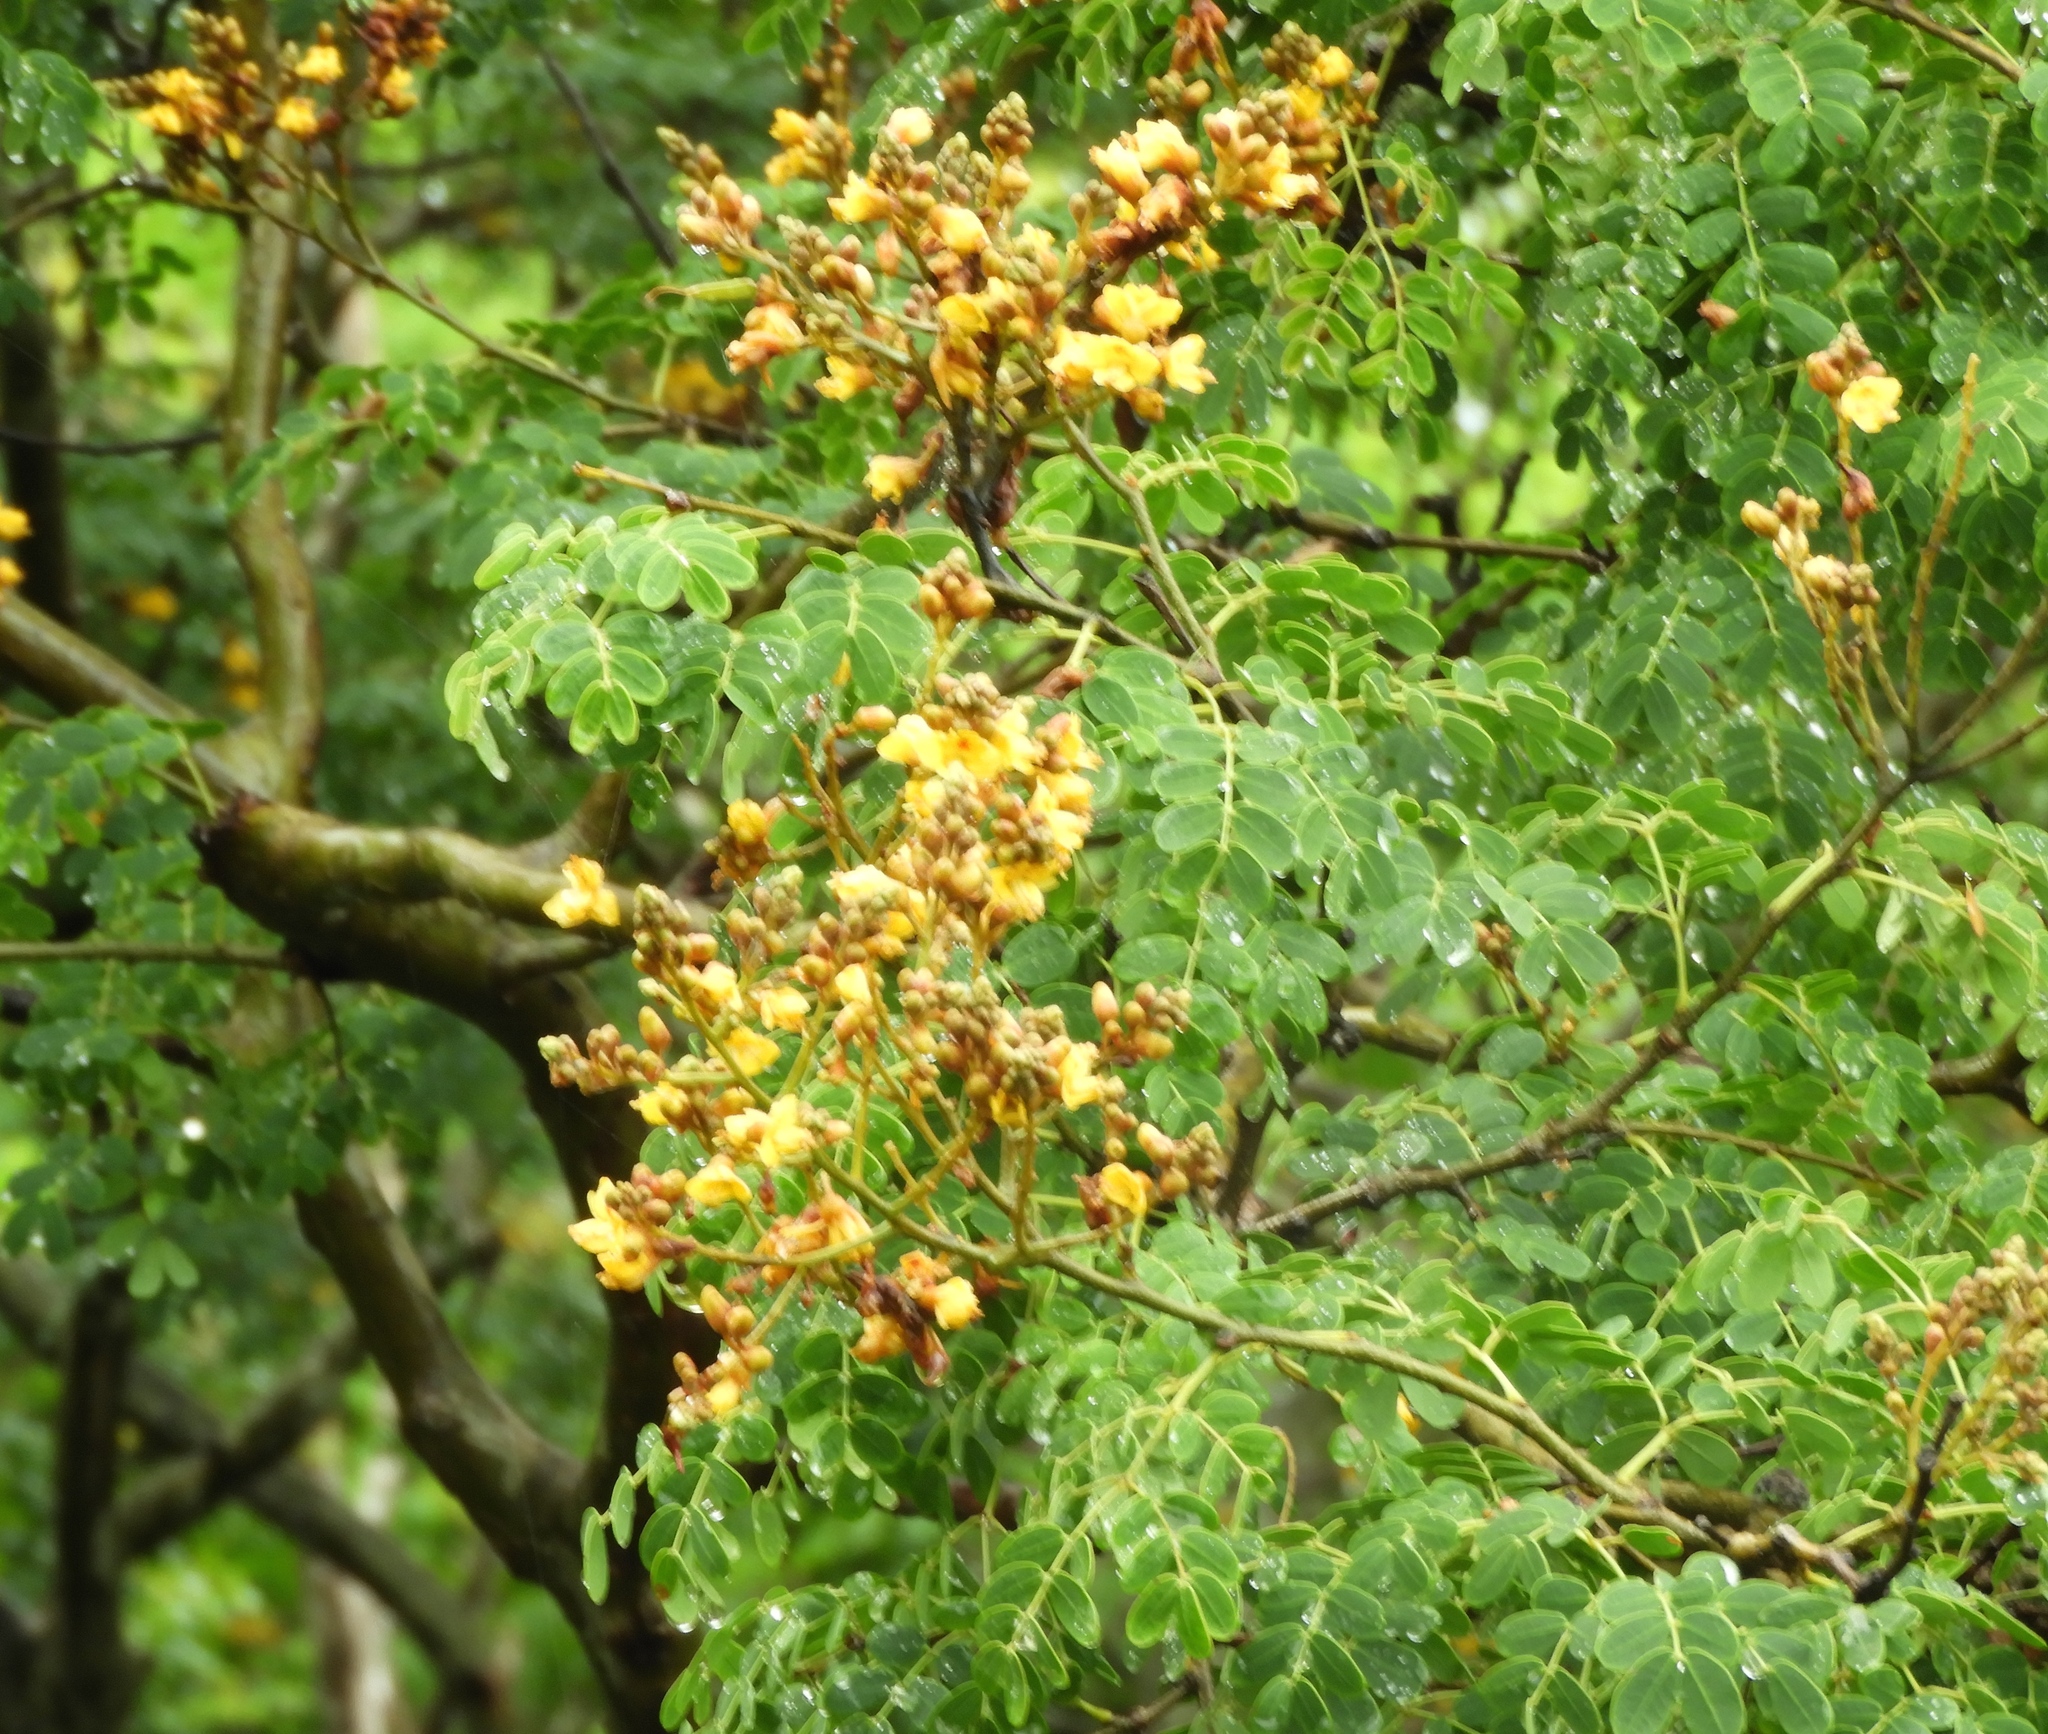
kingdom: Plantae
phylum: Tracheophyta
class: Magnoliopsida
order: Fabales
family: Fabaceae
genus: Libidibia
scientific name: Libidibia sclerocarpa
